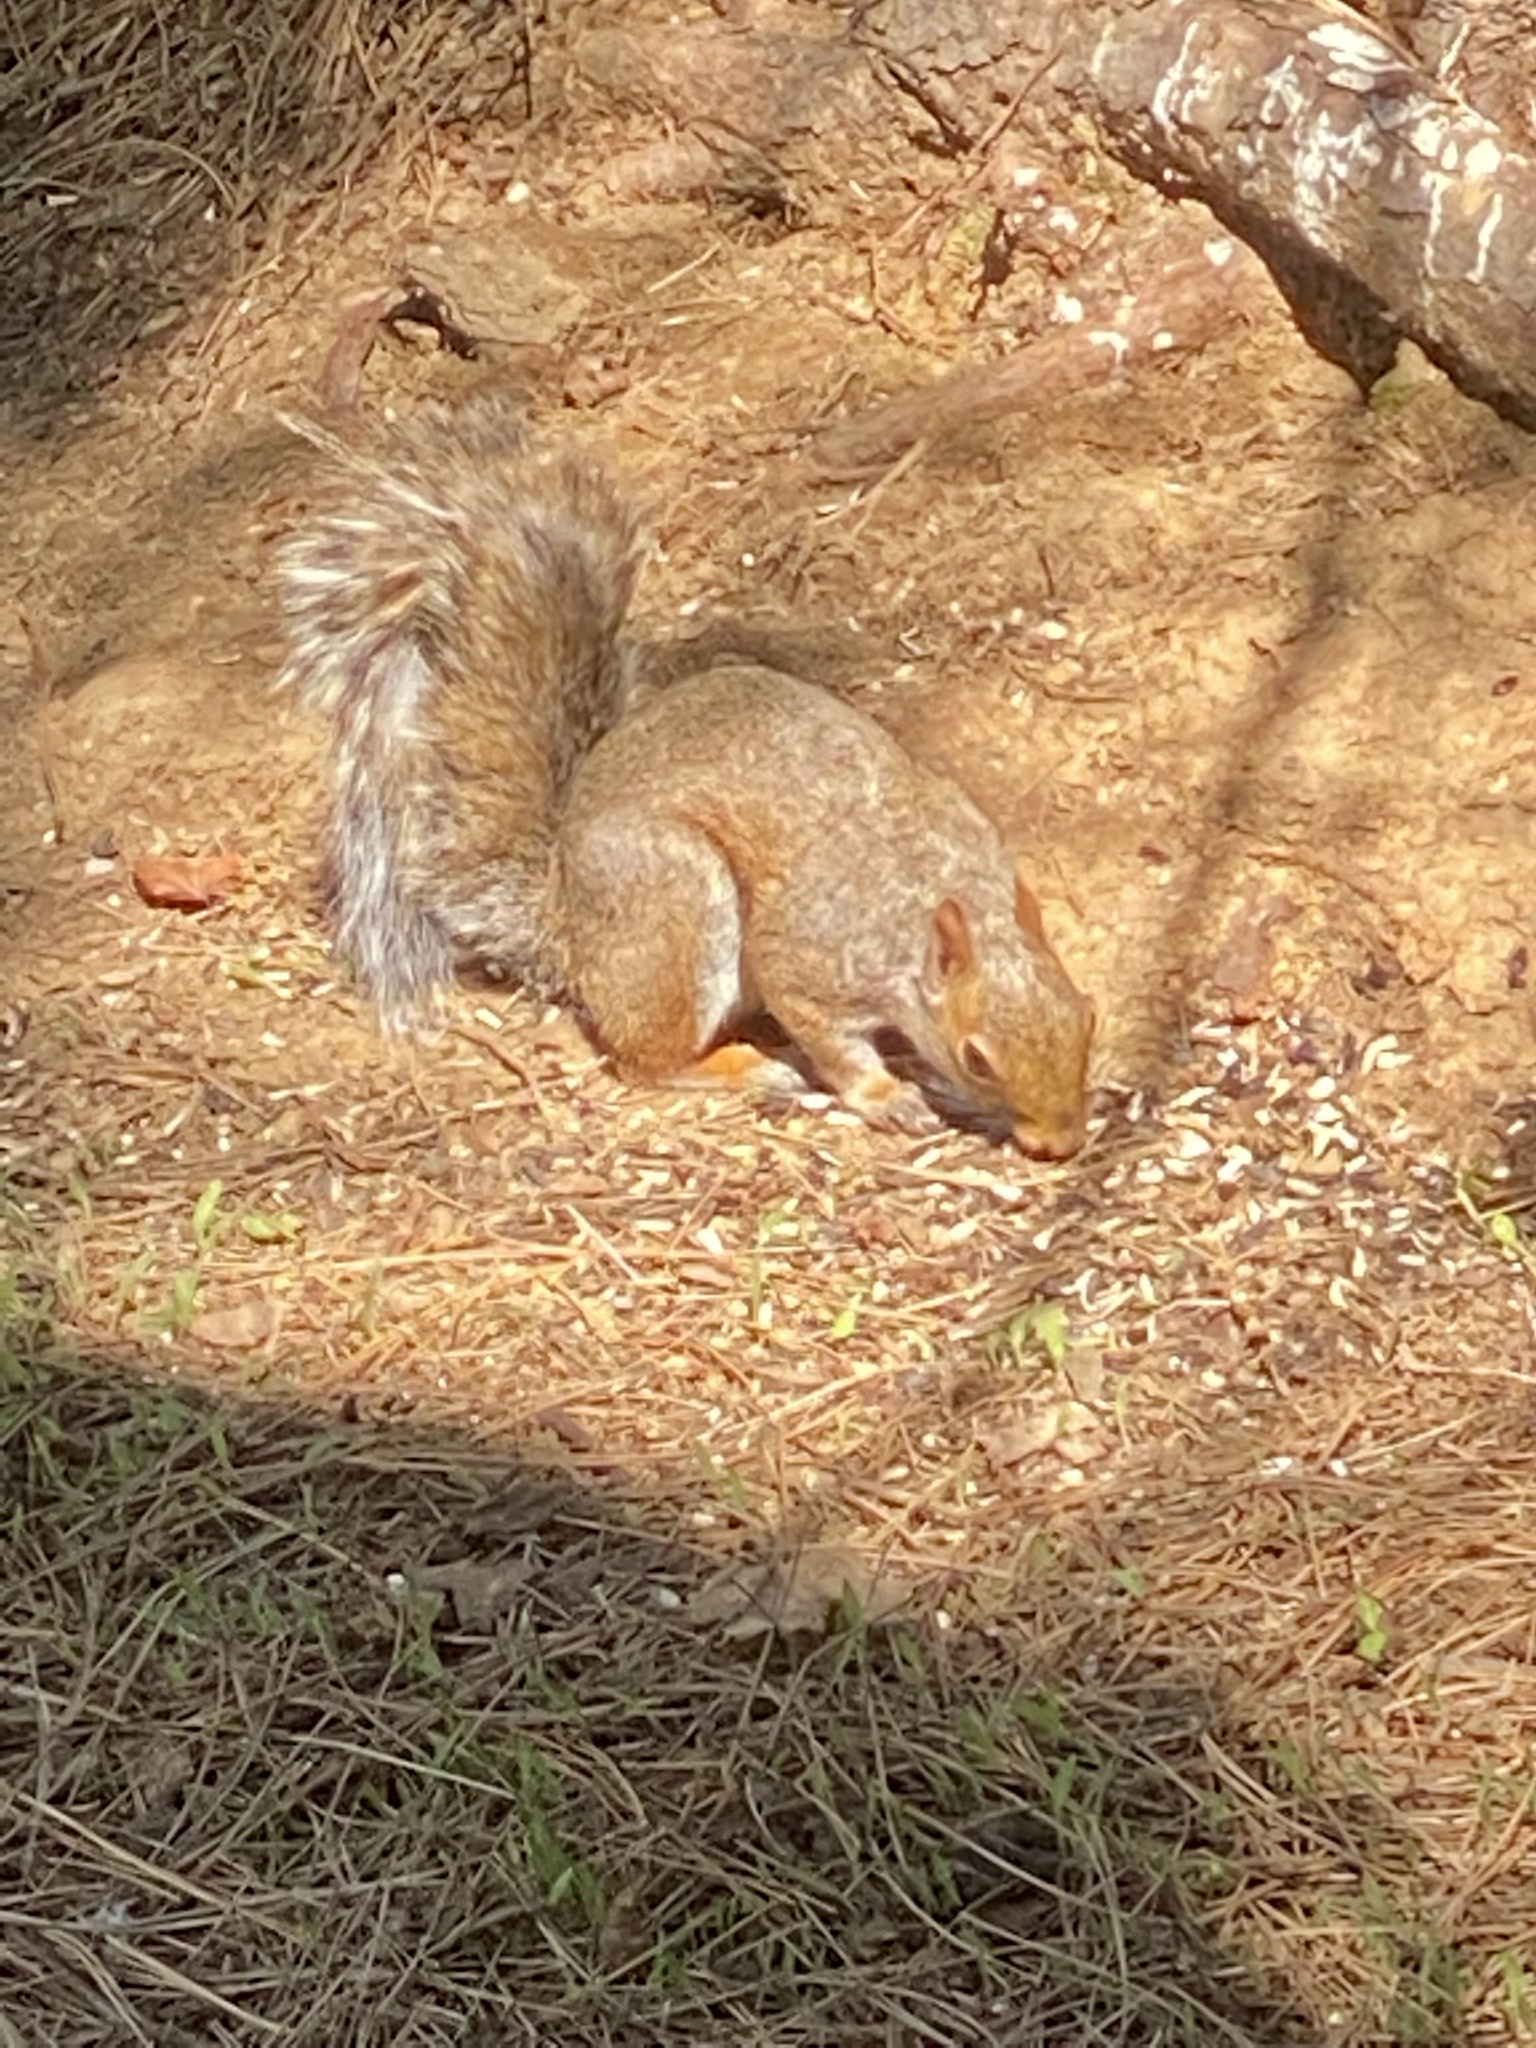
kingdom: Animalia
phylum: Chordata
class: Mammalia
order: Rodentia
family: Sciuridae
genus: Sciurus
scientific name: Sciurus carolinensis
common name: Eastern gray squirrel
